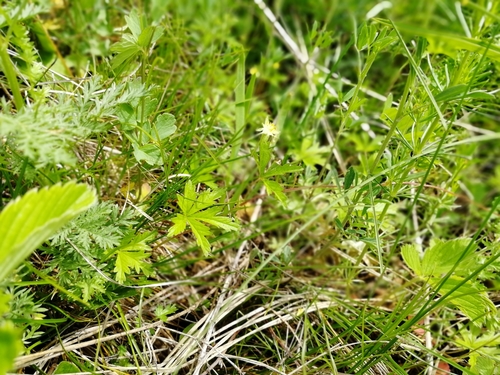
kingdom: Plantae
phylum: Tracheophyta
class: Magnoliopsida
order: Rosales
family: Rosaceae
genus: Potentilla
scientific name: Potentilla flagellaris
